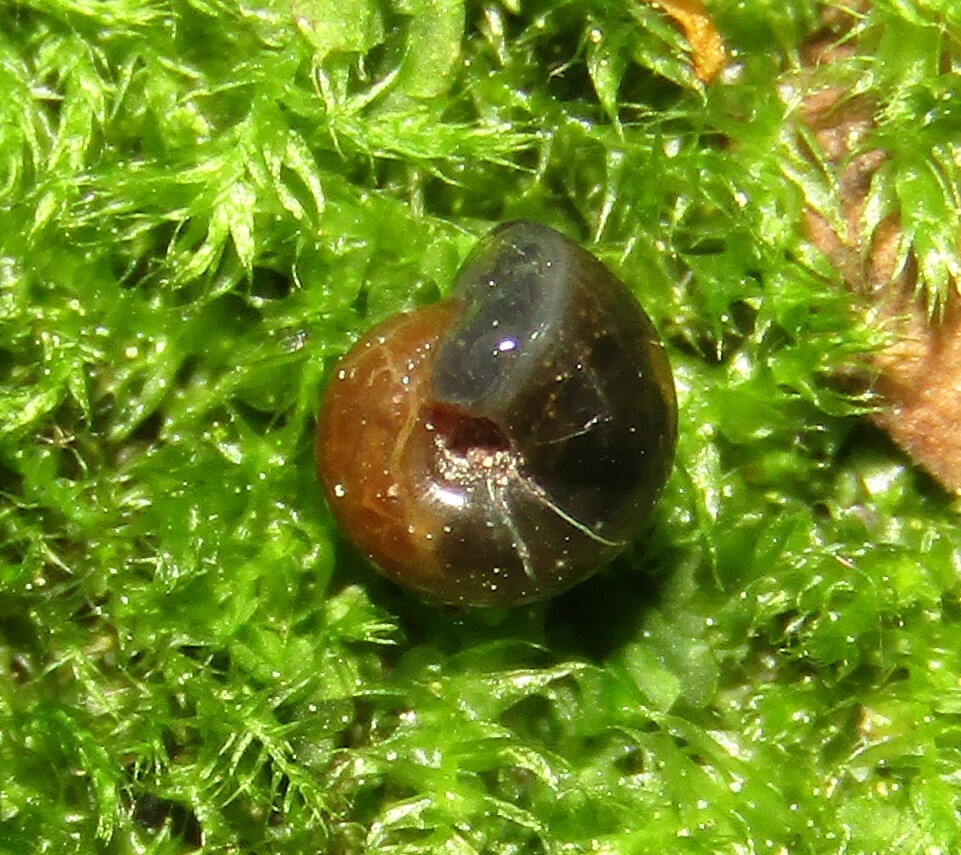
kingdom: Animalia
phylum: Mollusca
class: Gastropoda
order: Stylommatophora
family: Gastrodontidae
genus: Zonitoides
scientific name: Zonitoides nitidus
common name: Shiny glass snail
